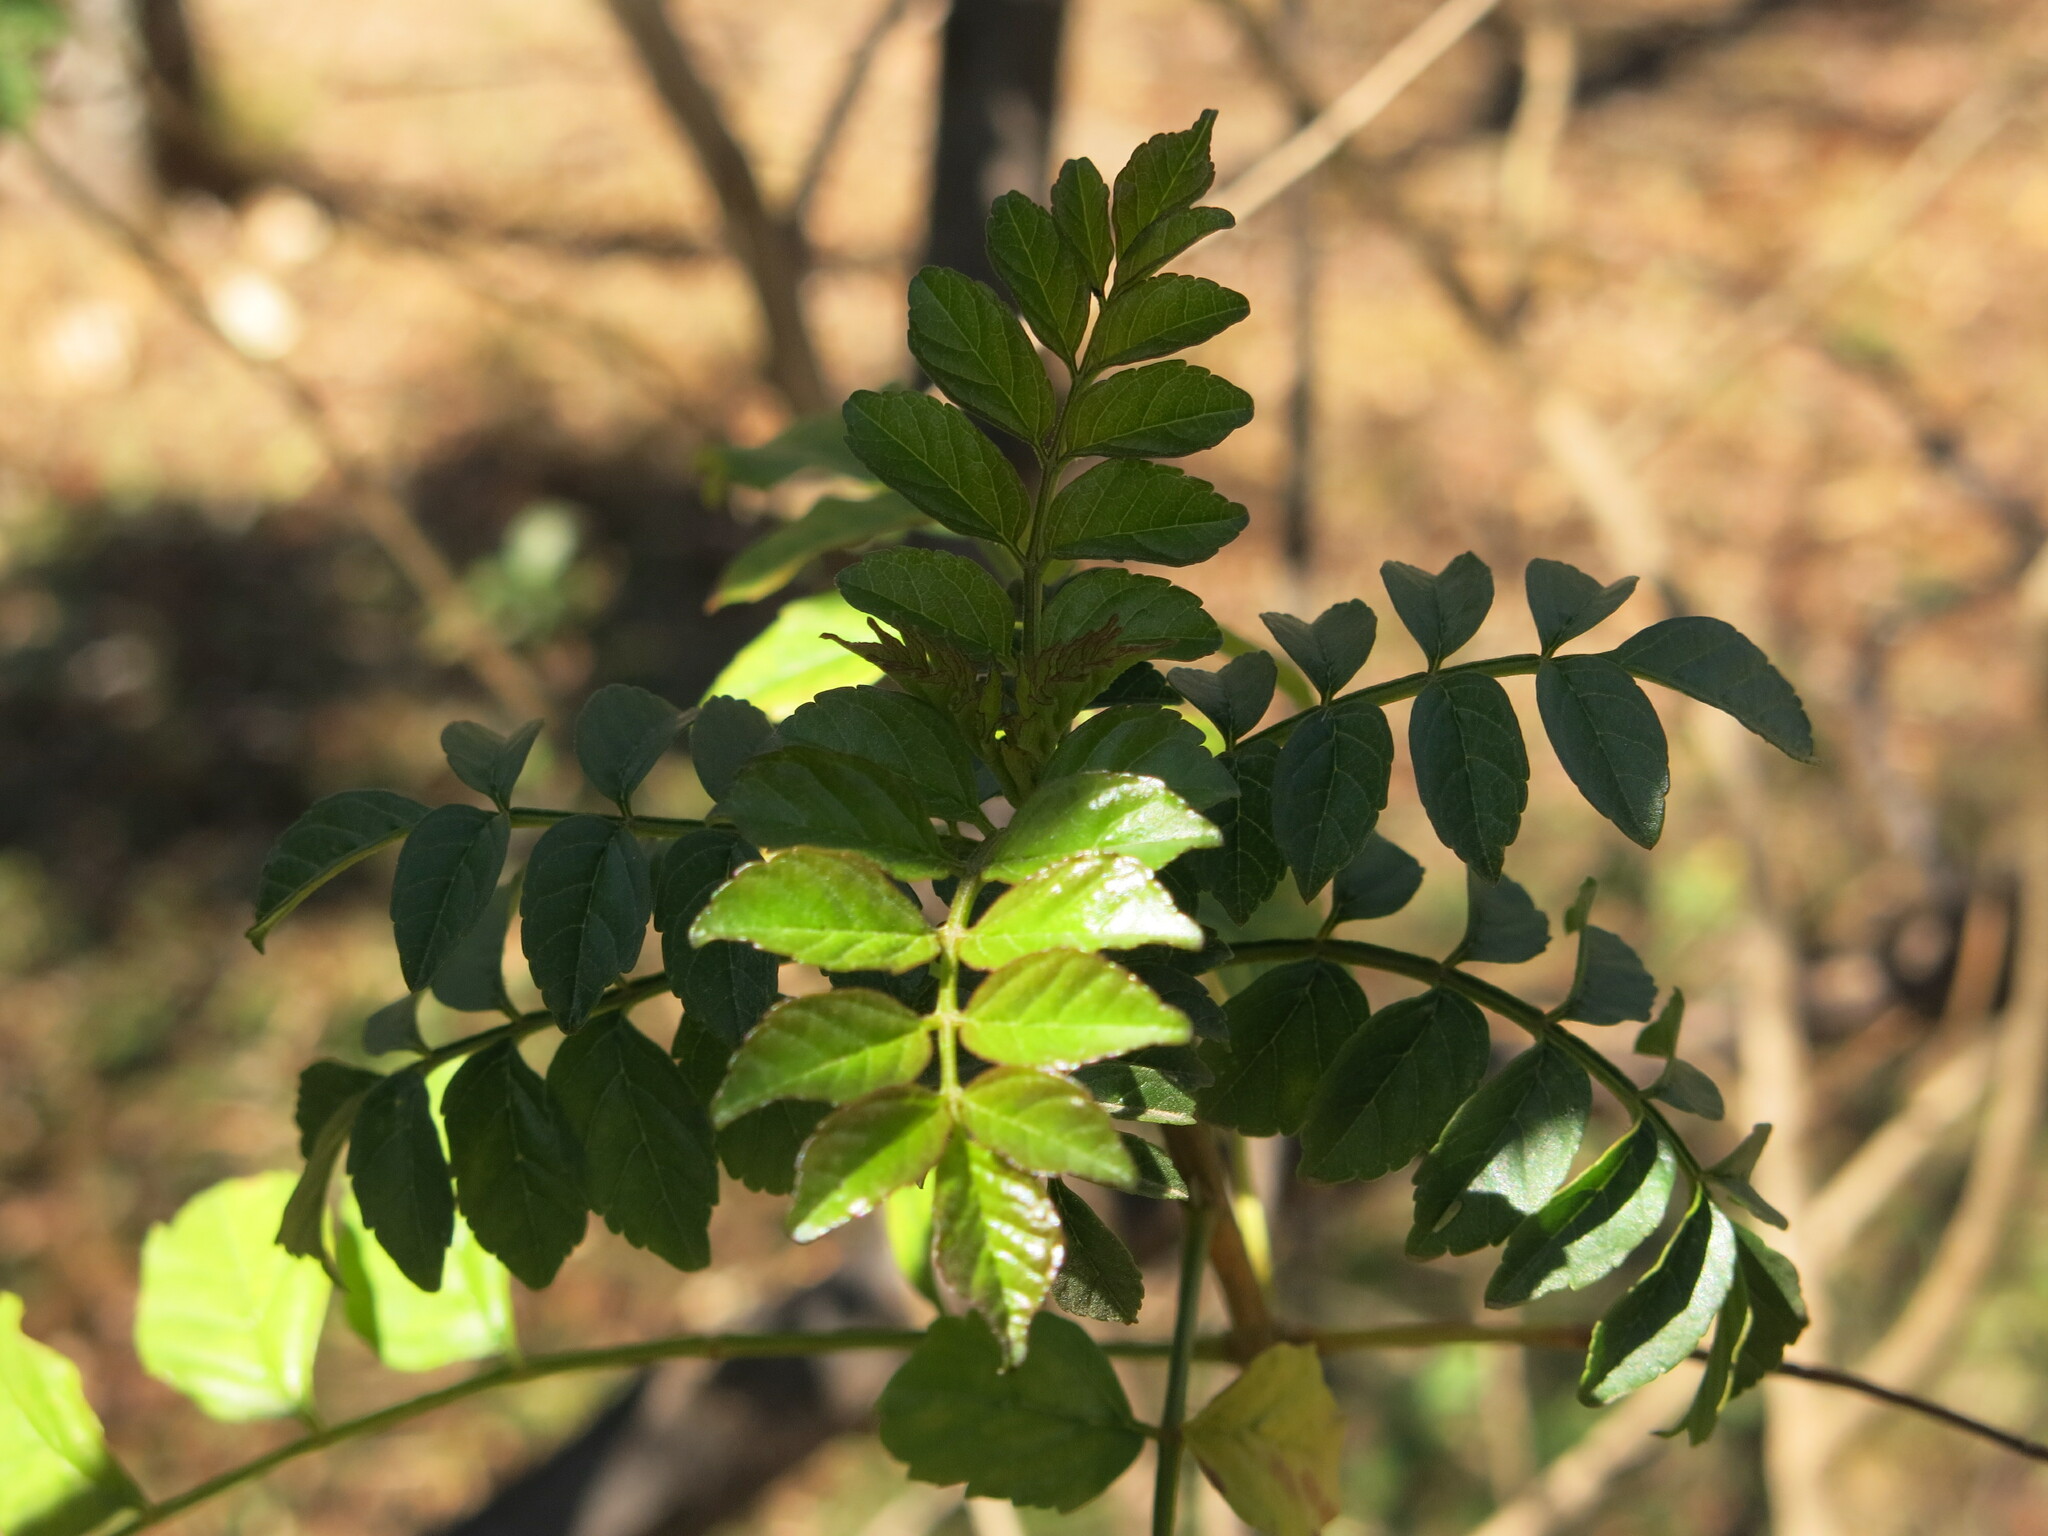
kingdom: Plantae
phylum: Tracheophyta
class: Magnoliopsida
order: Lamiales
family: Bignoniaceae
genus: Tecomaria
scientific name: Tecomaria capensis
